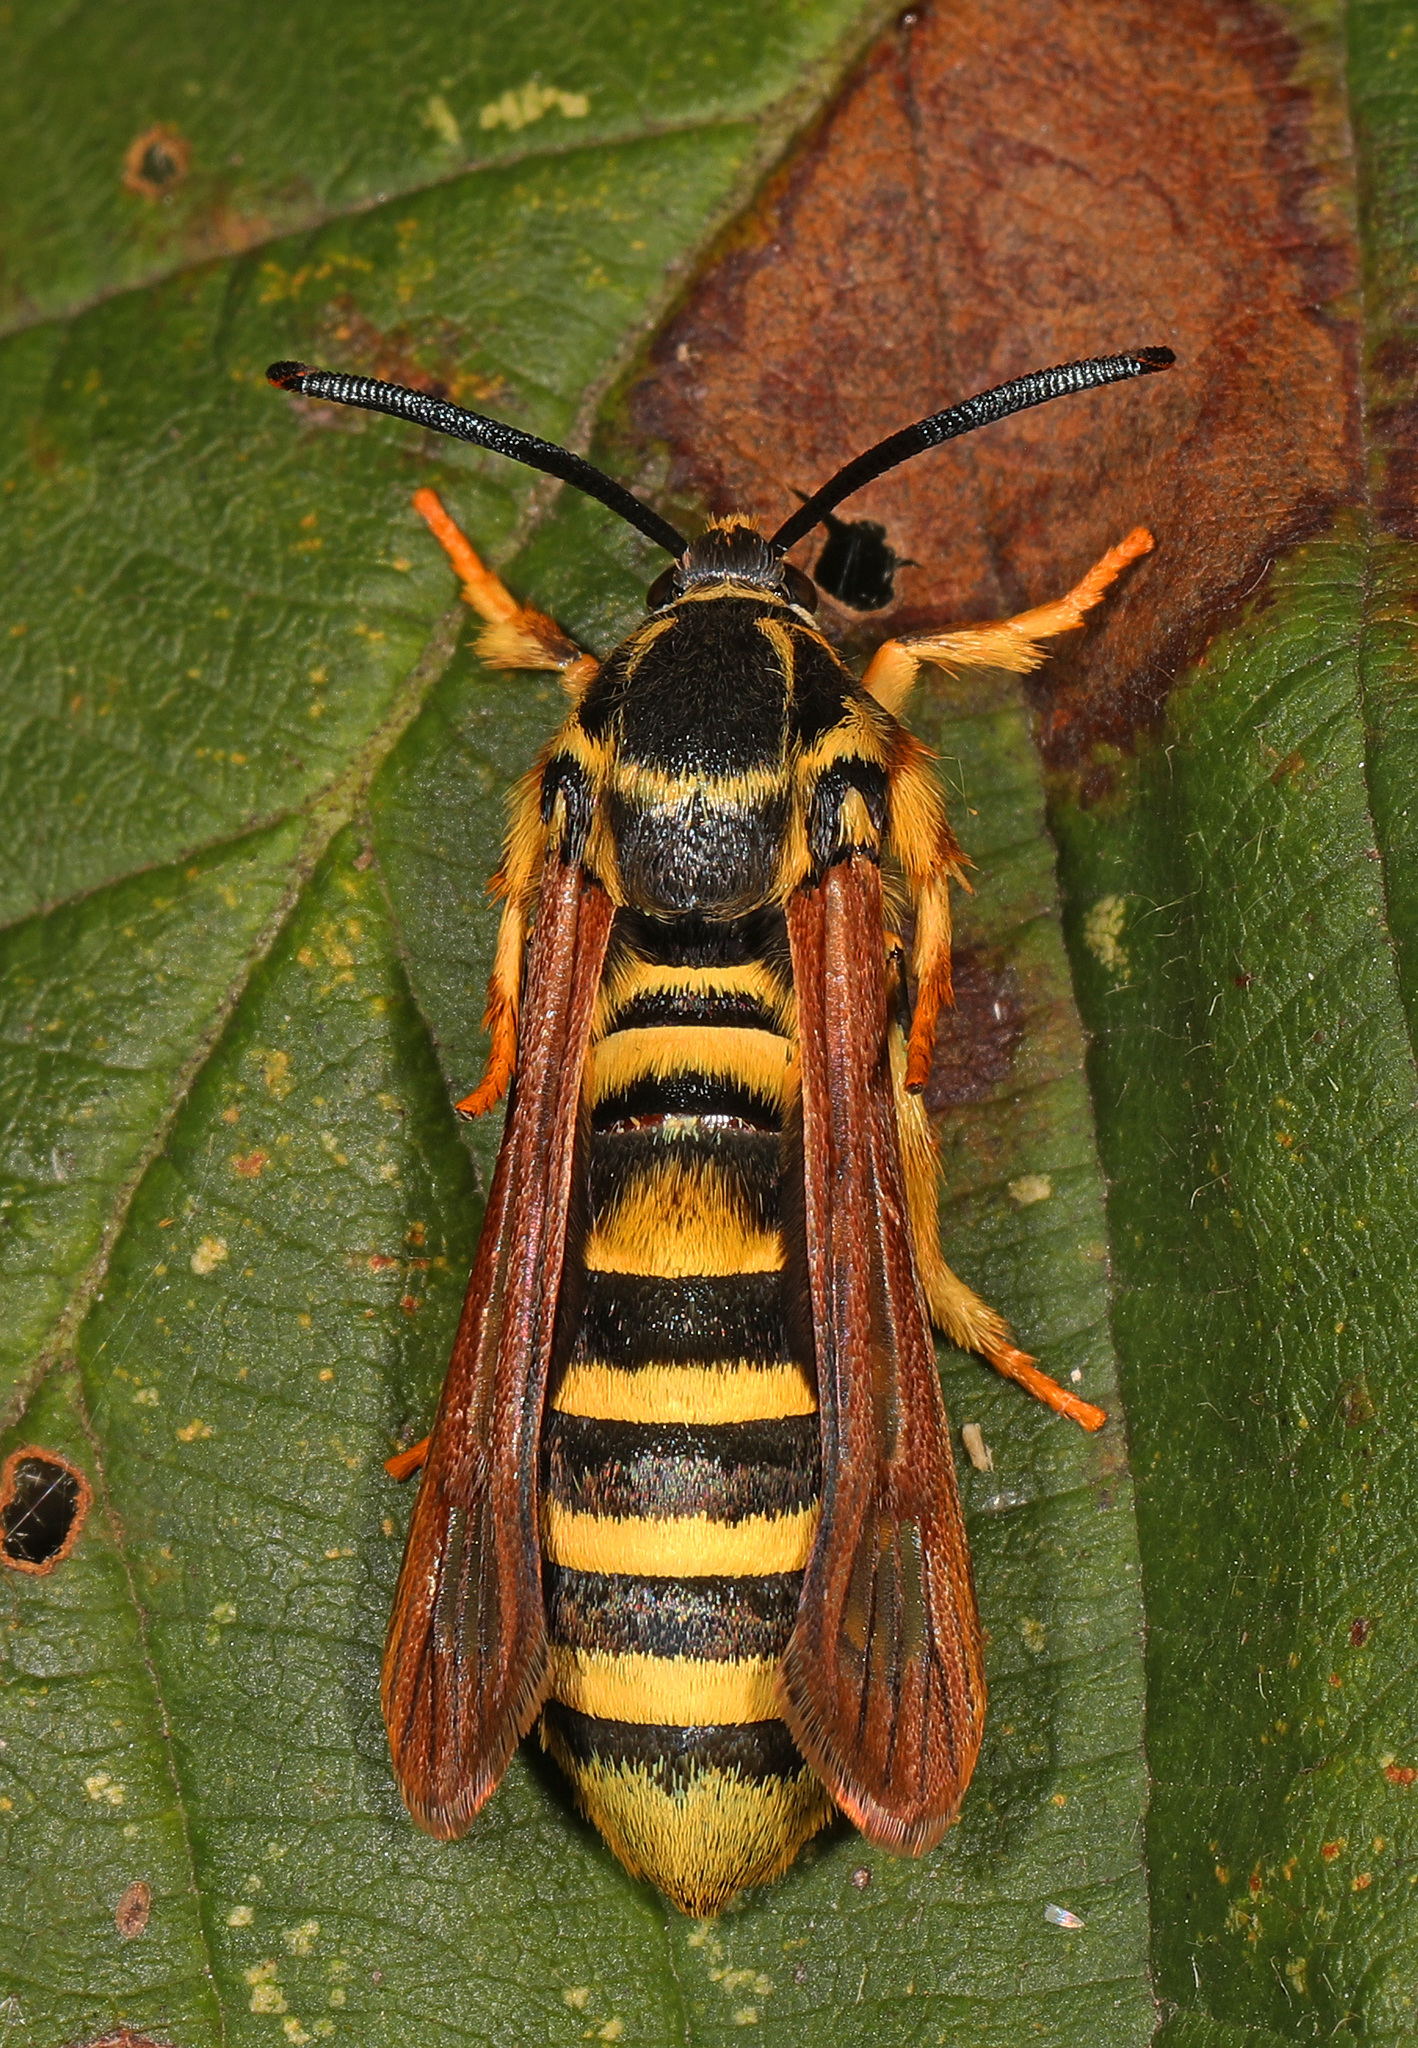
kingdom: Animalia
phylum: Arthropoda
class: Insecta
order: Lepidoptera
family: Sesiidae
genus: Pennisetia
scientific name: Pennisetia marginatum
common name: Raspberry crown borer
